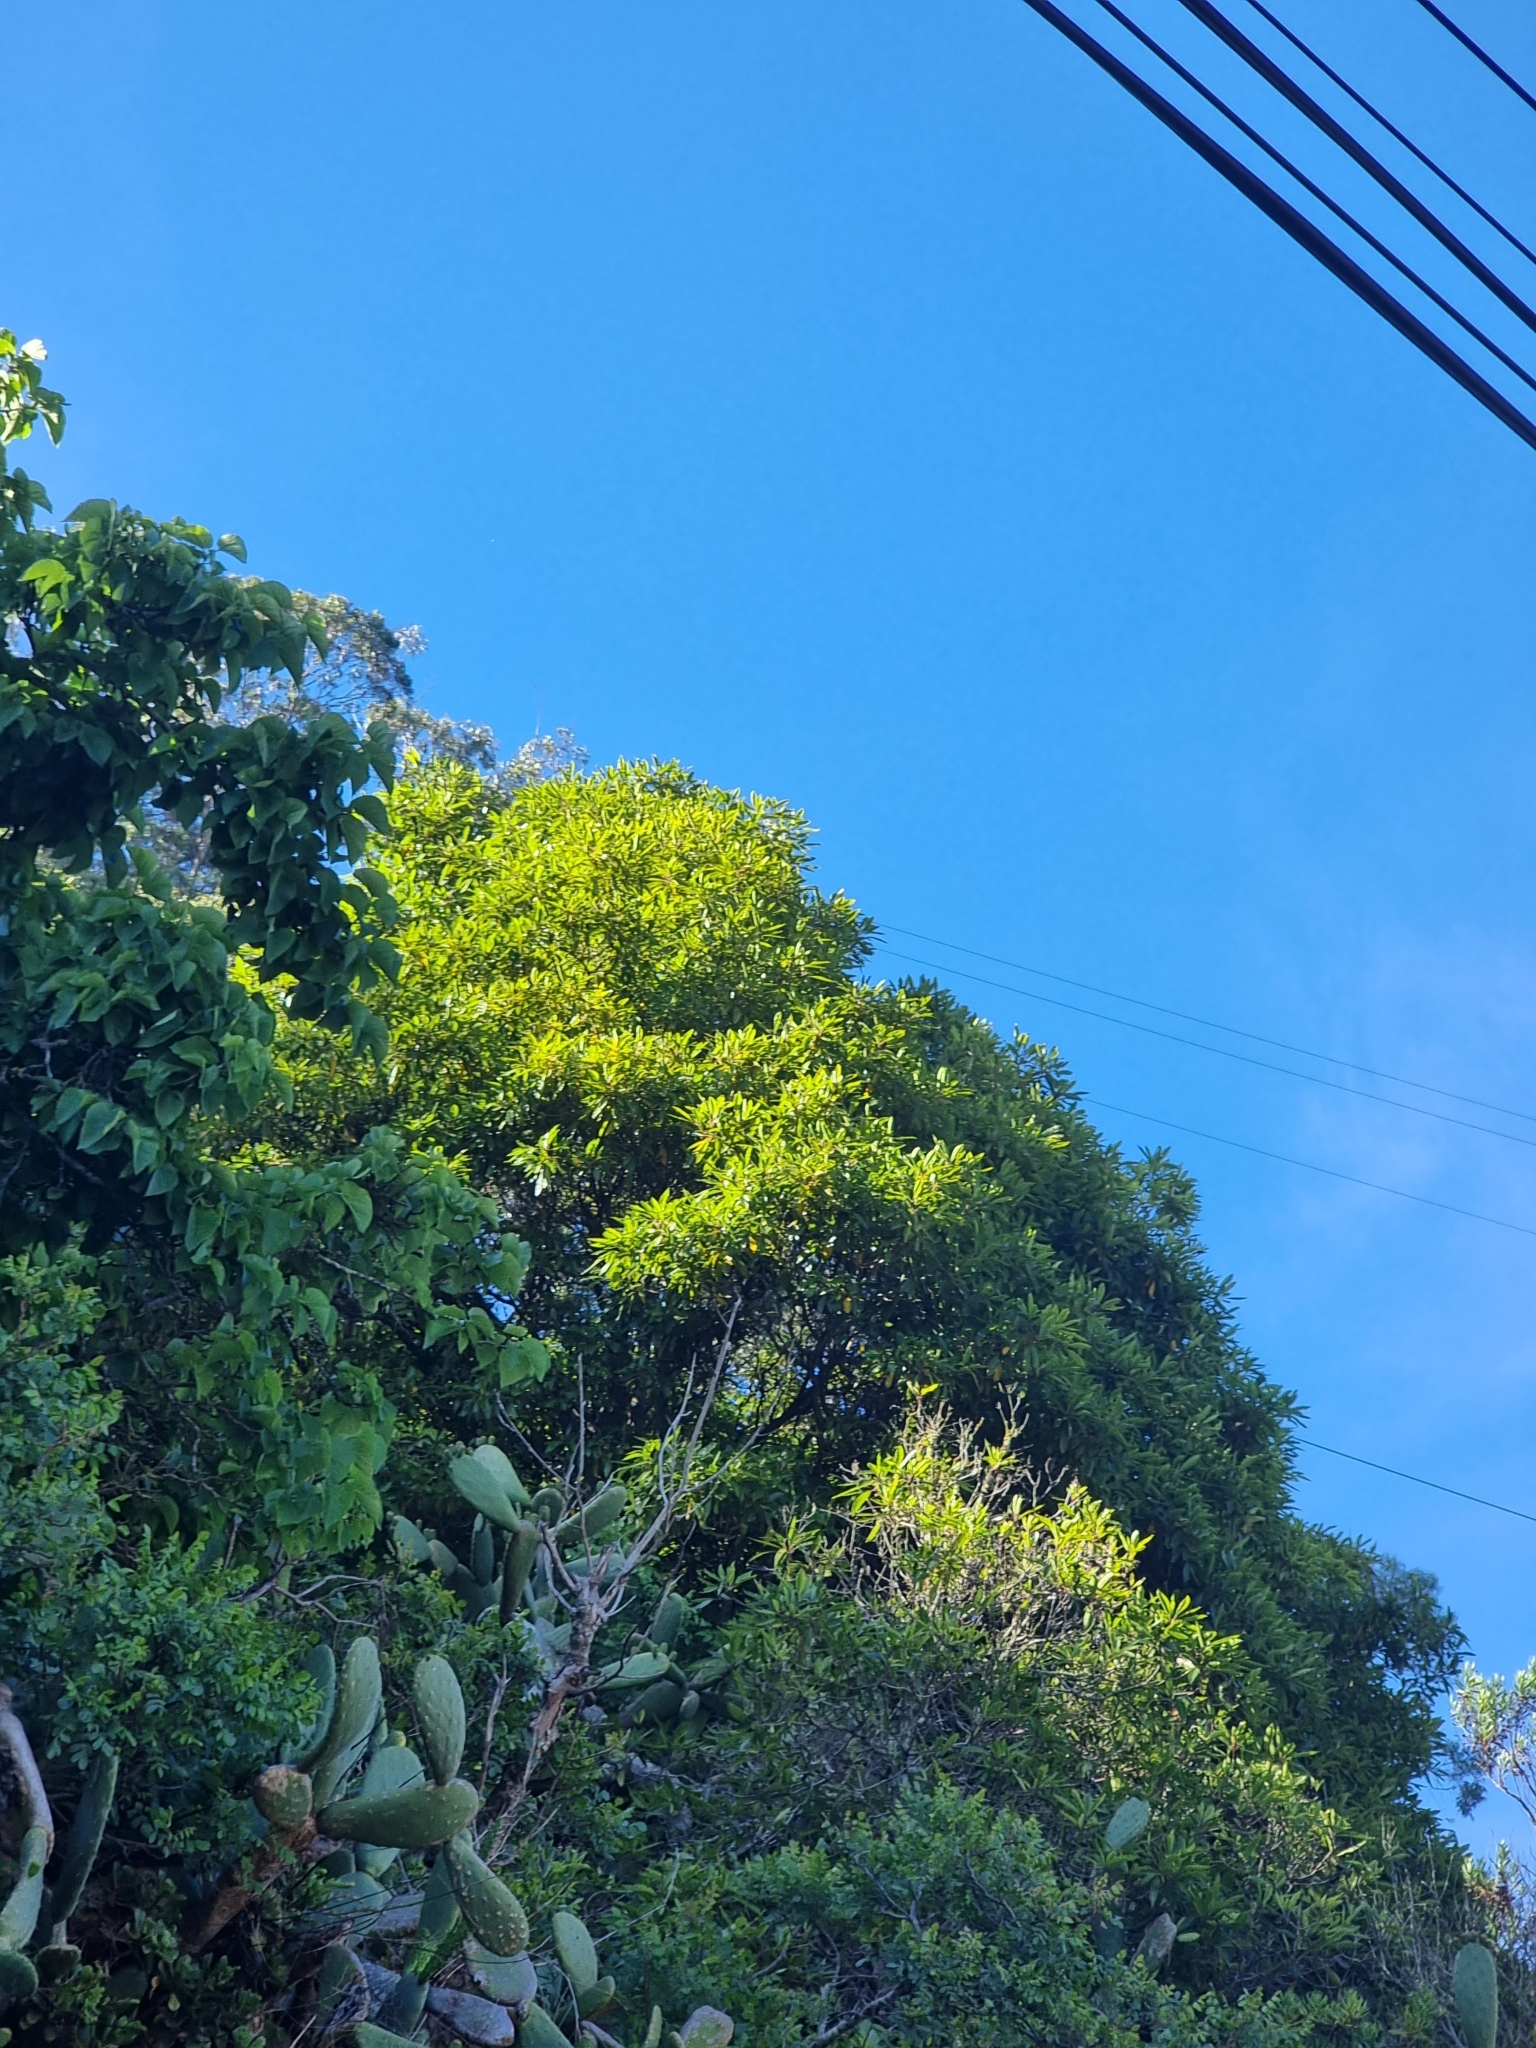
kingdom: Plantae
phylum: Tracheophyta
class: Magnoliopsida
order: Apiales
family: Pittosporaceae
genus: Pittosporum
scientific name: Pittosporum undulatum
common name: Australian cheesewood
